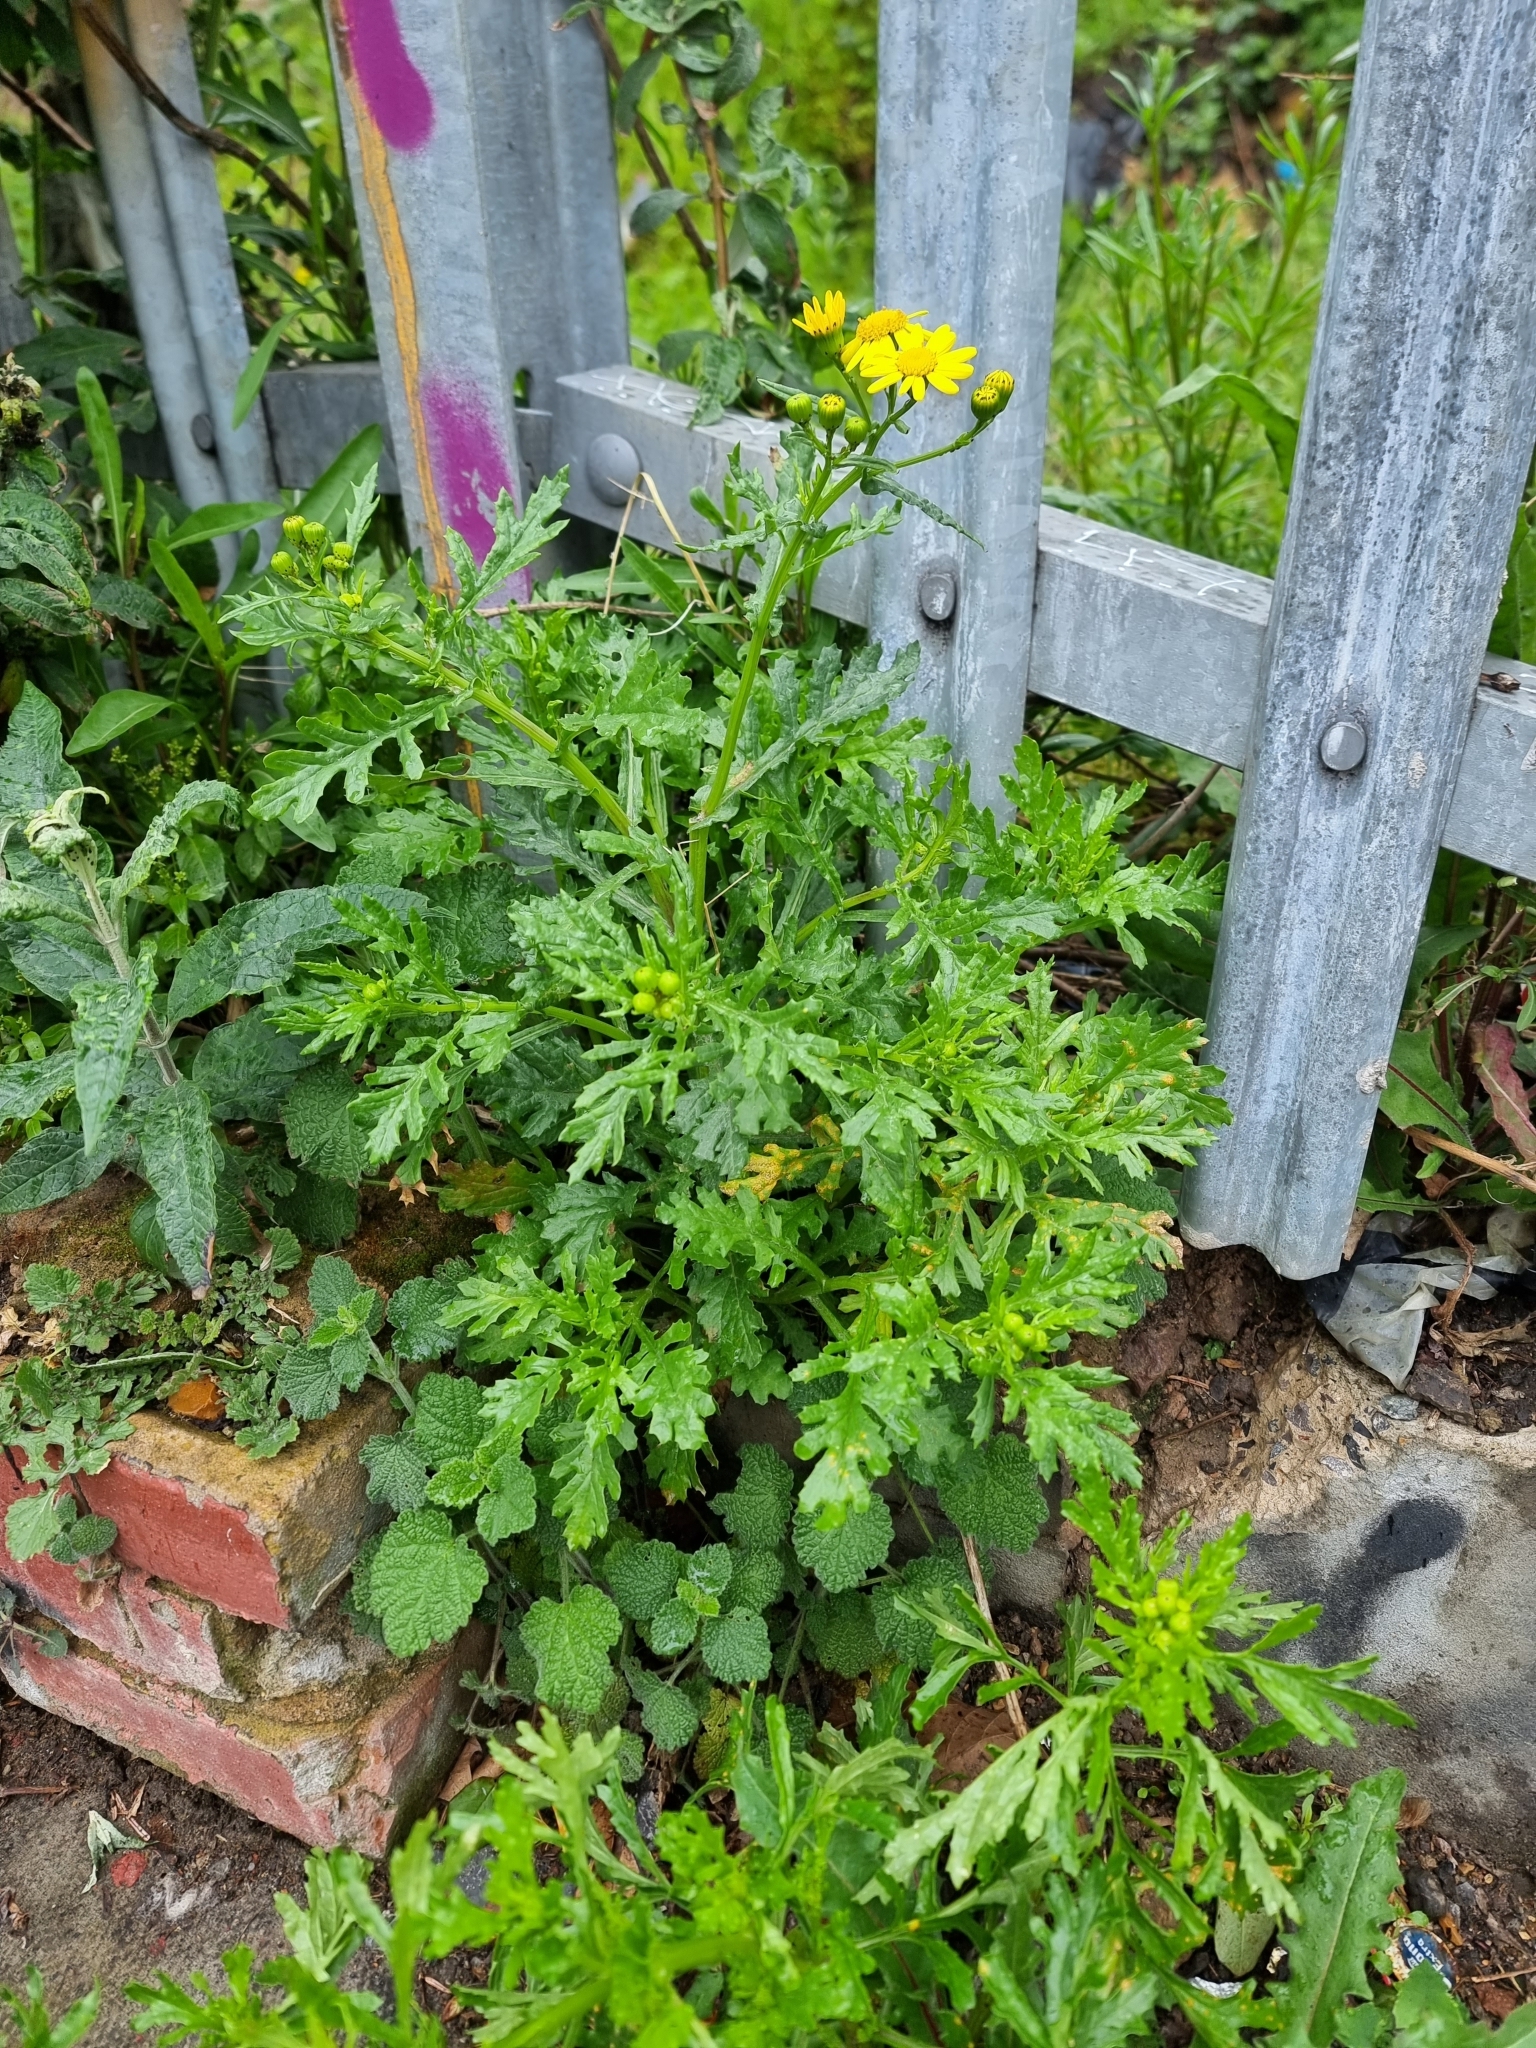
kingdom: Plantae
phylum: Tracheophyta
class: Magnoliopsida
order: Asterales
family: Asteraceae
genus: Senecio
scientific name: Senecio squalidus
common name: Oxford ragwort
